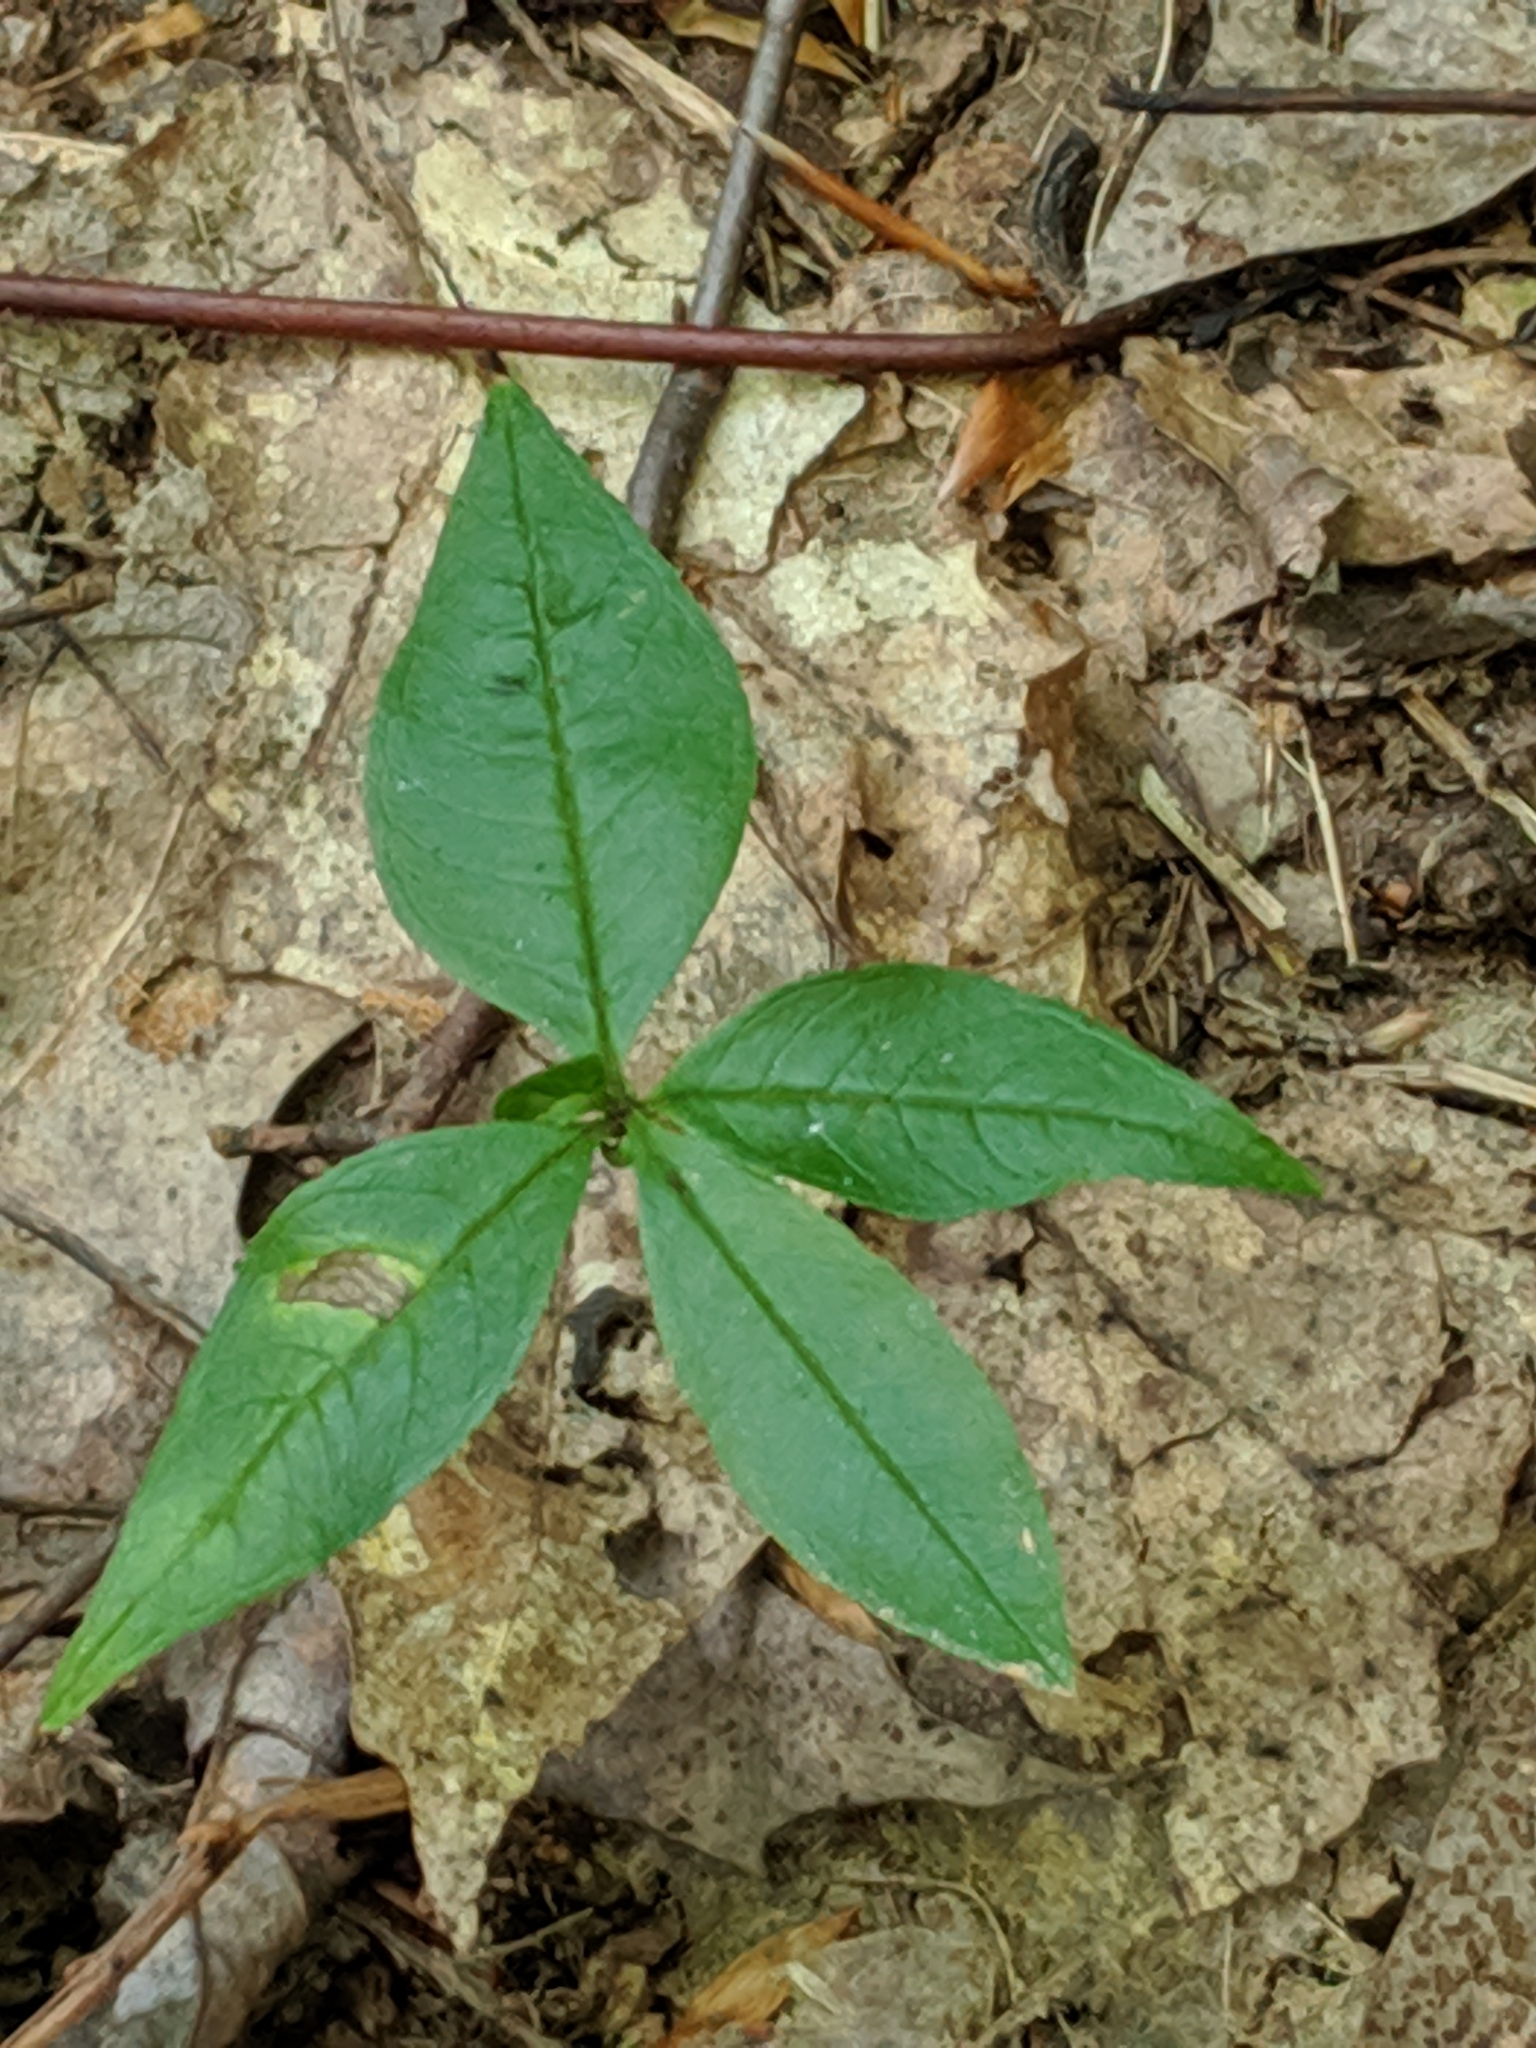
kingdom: Plantae
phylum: Tracheophyta
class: Magnoliopsida
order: Ericales
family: Primulaceae
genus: Lysimachia
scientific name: Lysimachia borealis
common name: American starflower
